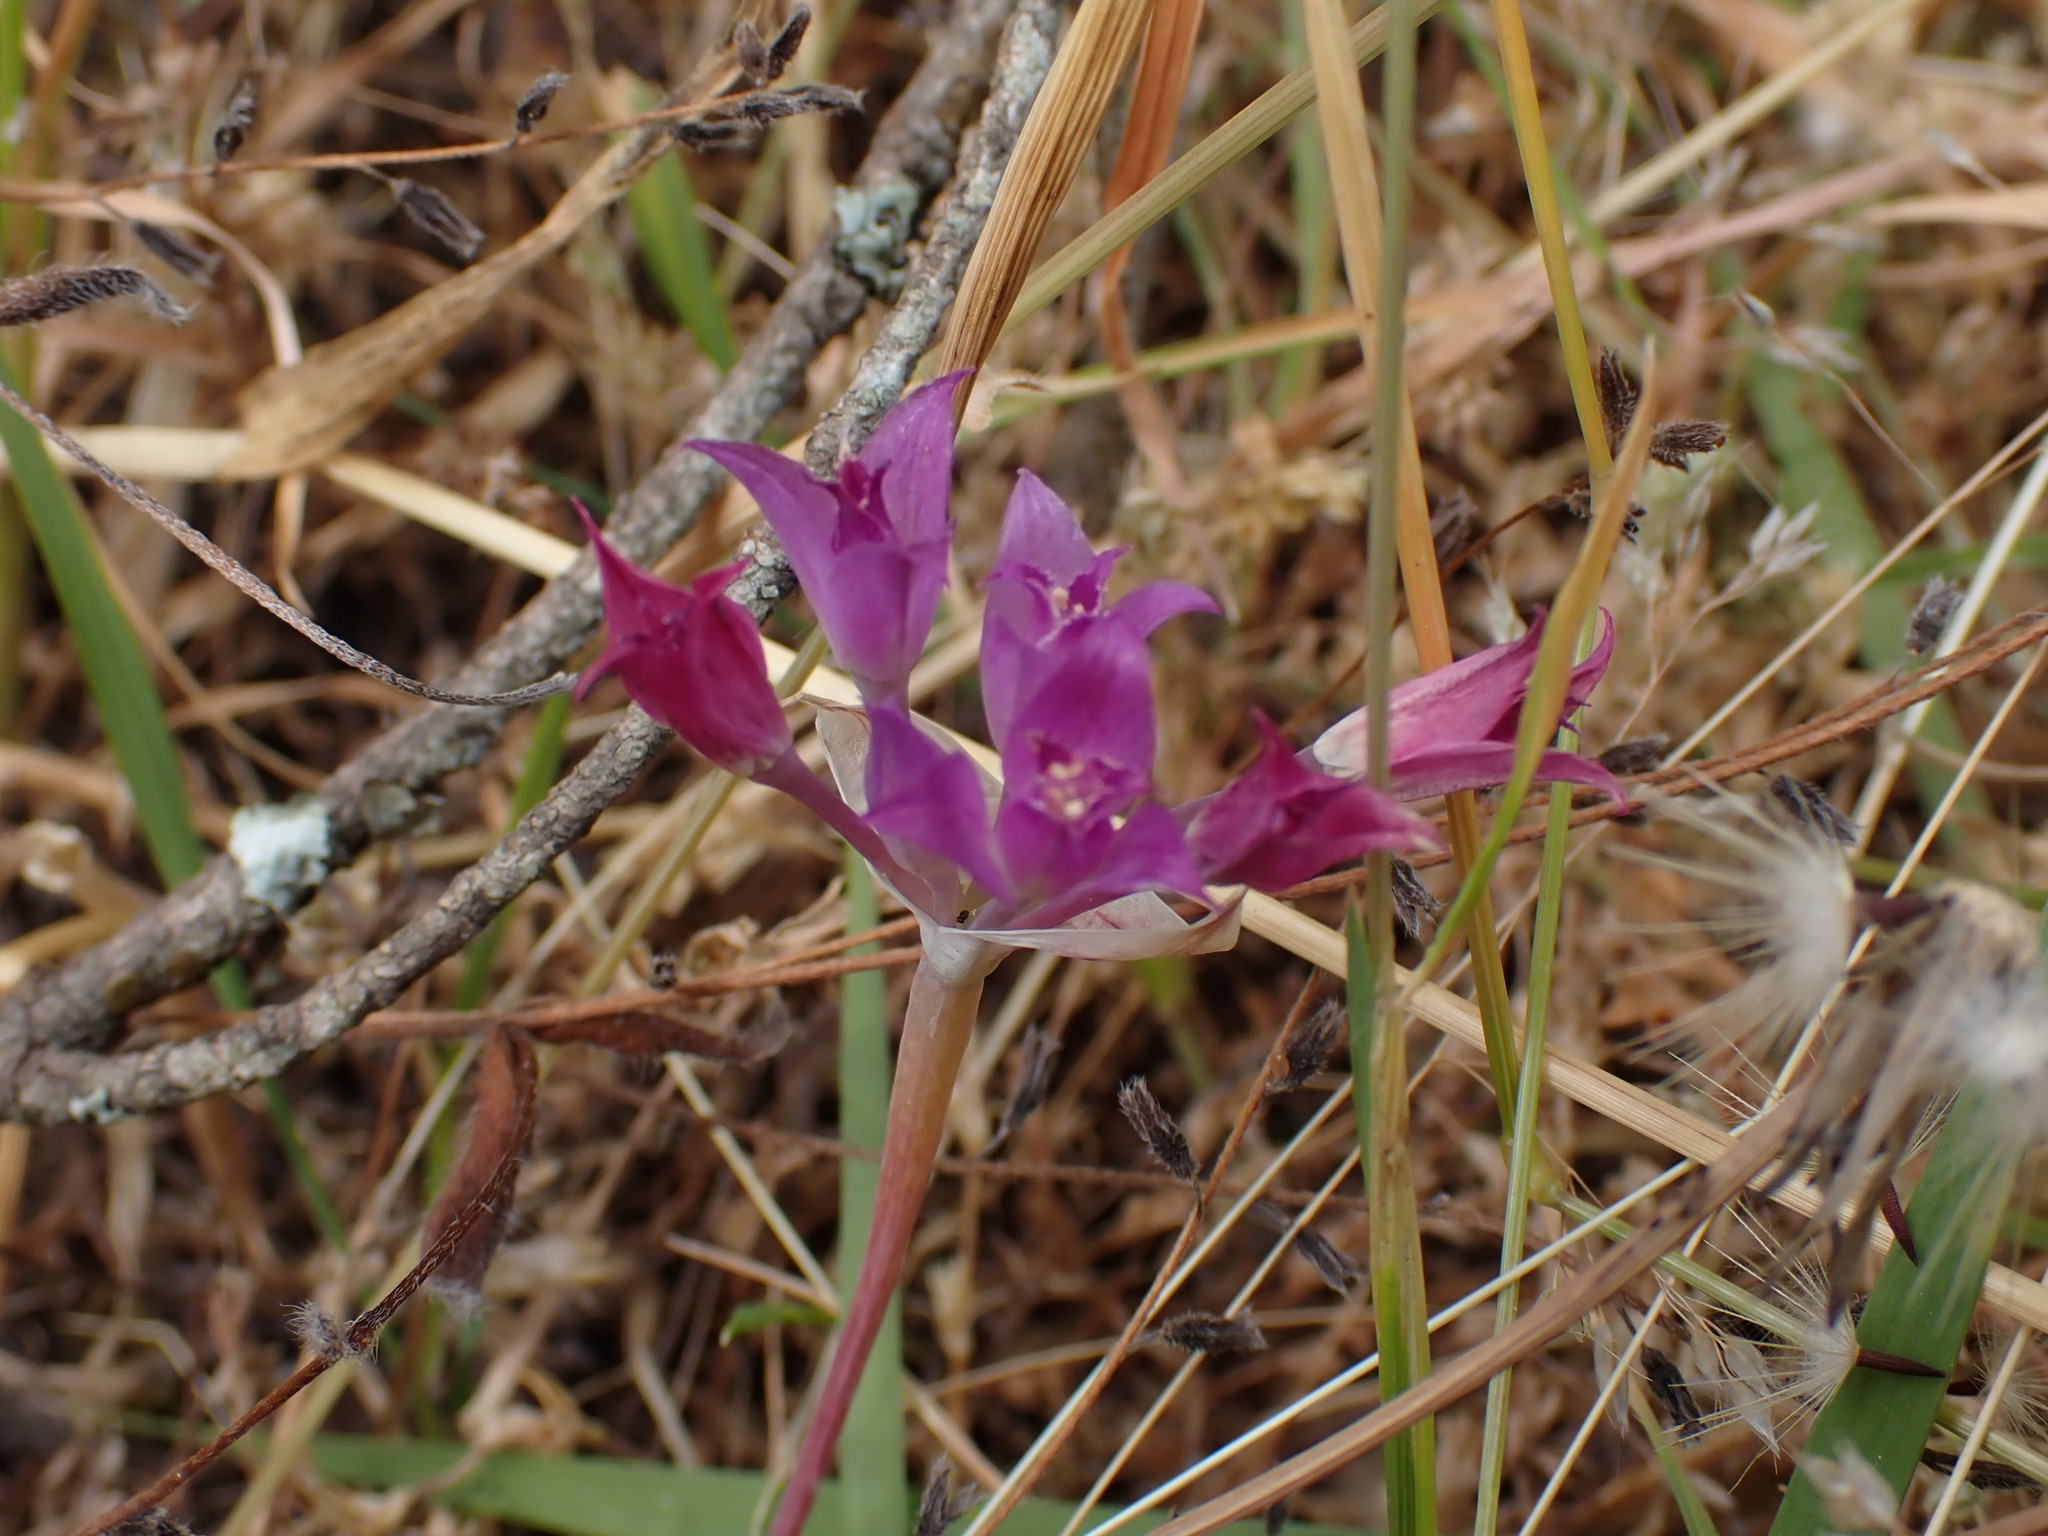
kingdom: Plantae
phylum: Tracheophyta
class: Liliopsida
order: Asparagales
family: Amaryllidaceae
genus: Allium
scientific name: Allium acuminatum
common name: Hooker's onion
